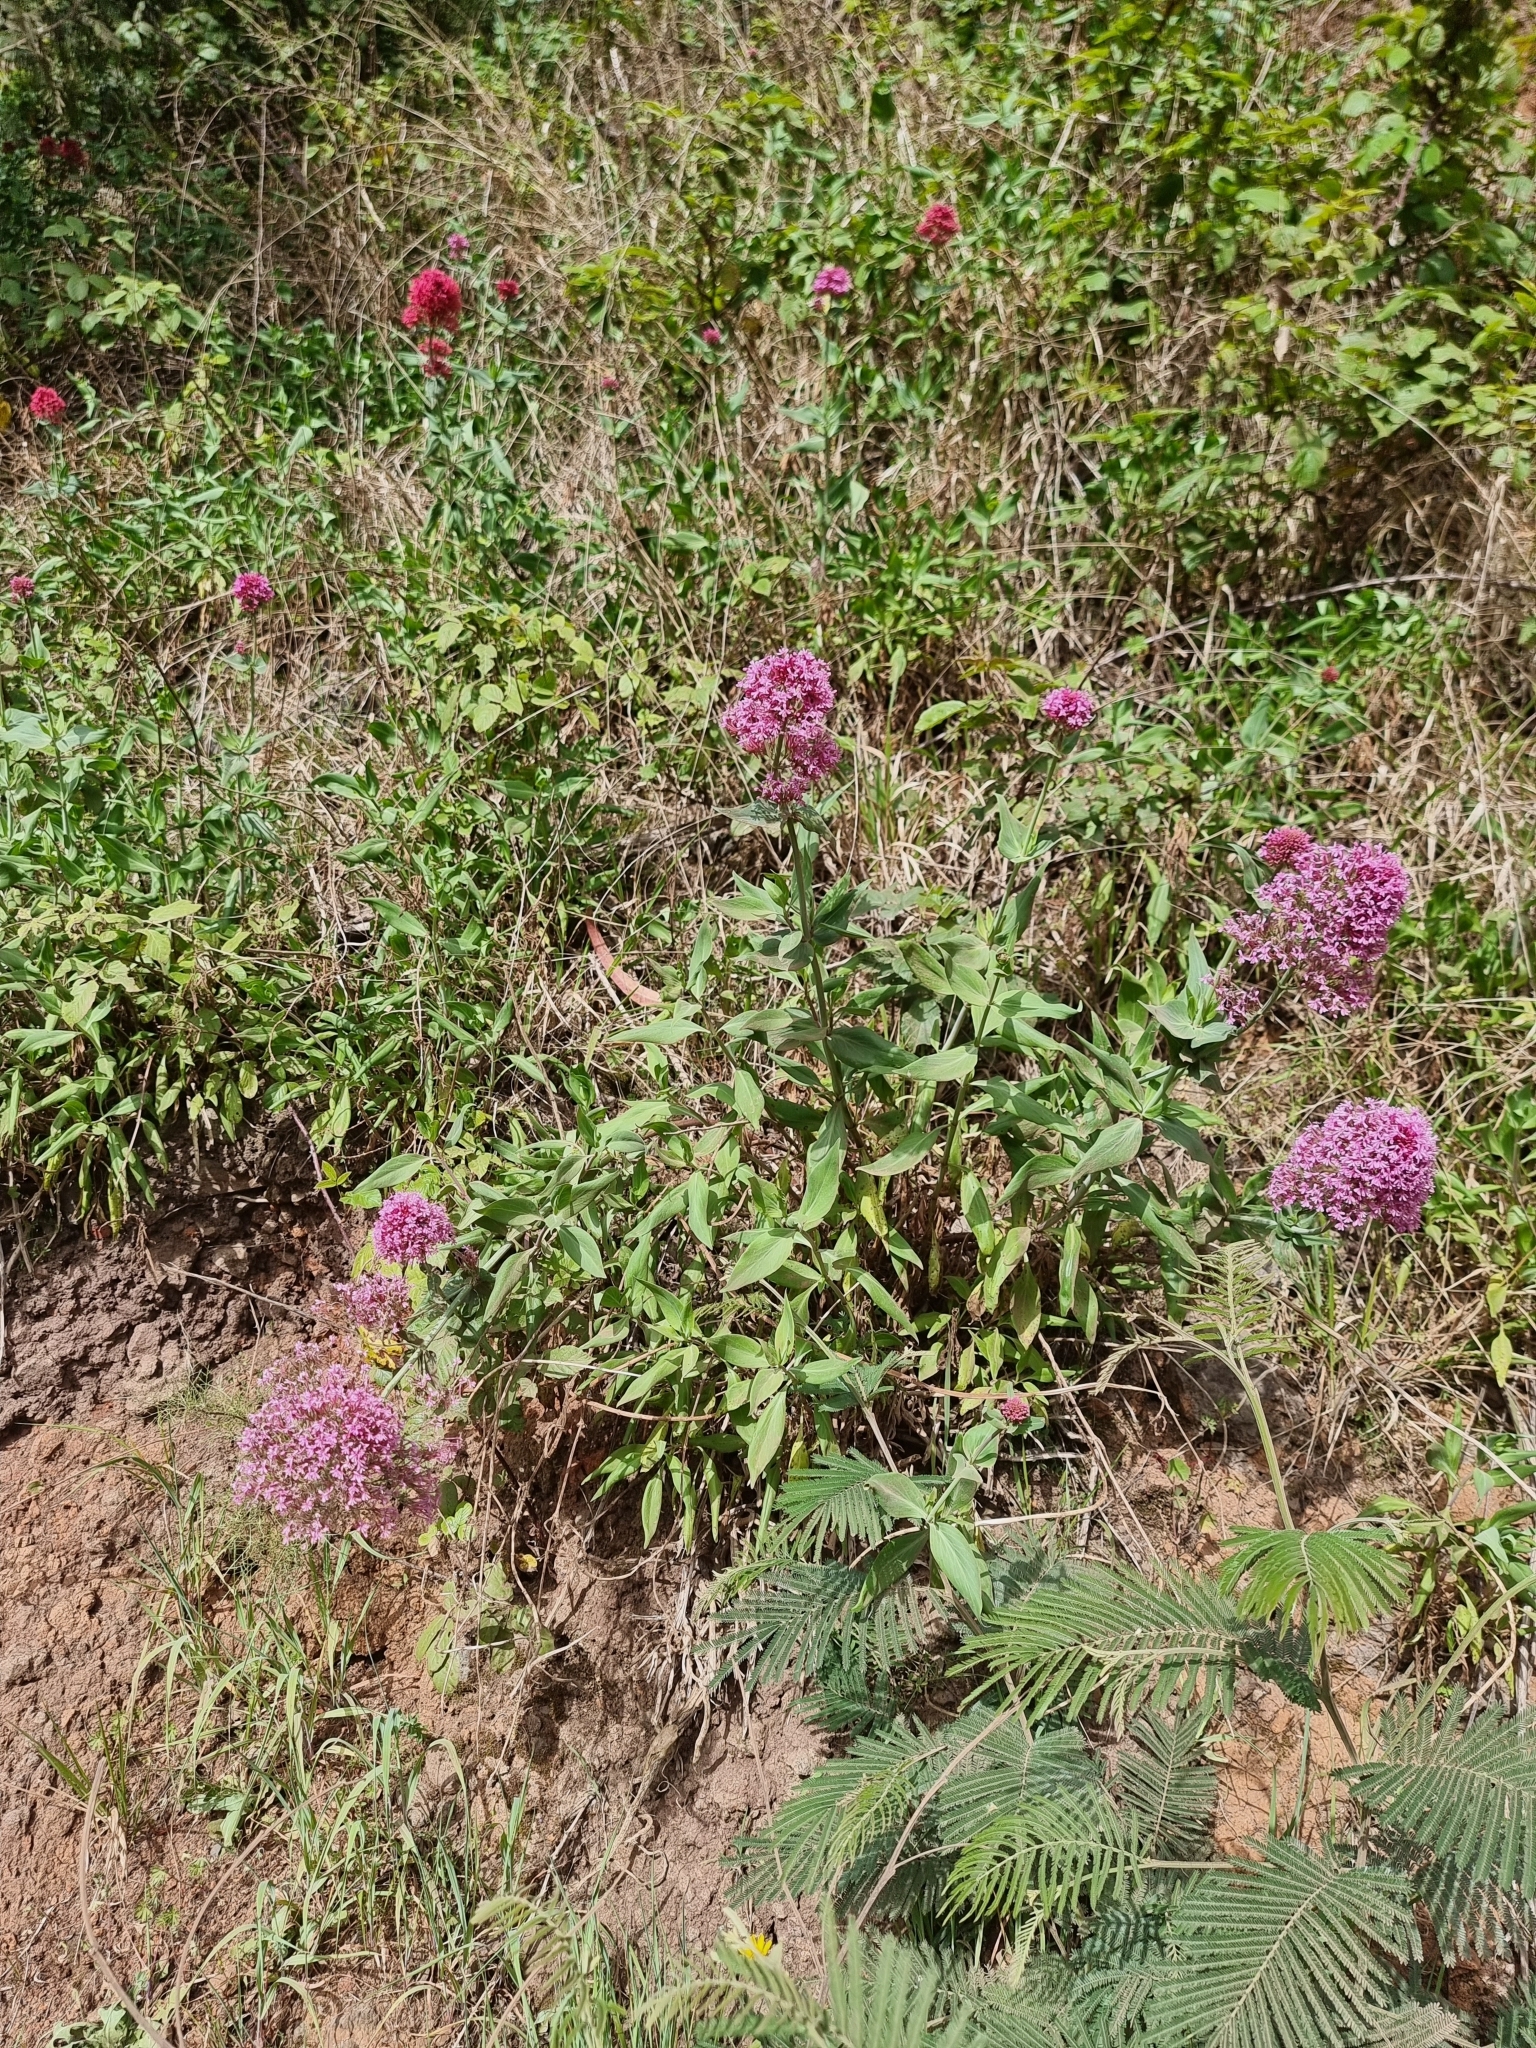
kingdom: Plantae
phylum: Tracheophyta
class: Magnoliopsida
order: Dipsacales
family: Caprifoliaceae
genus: Centranthus
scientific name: Centranthus ruber
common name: Red valerian
